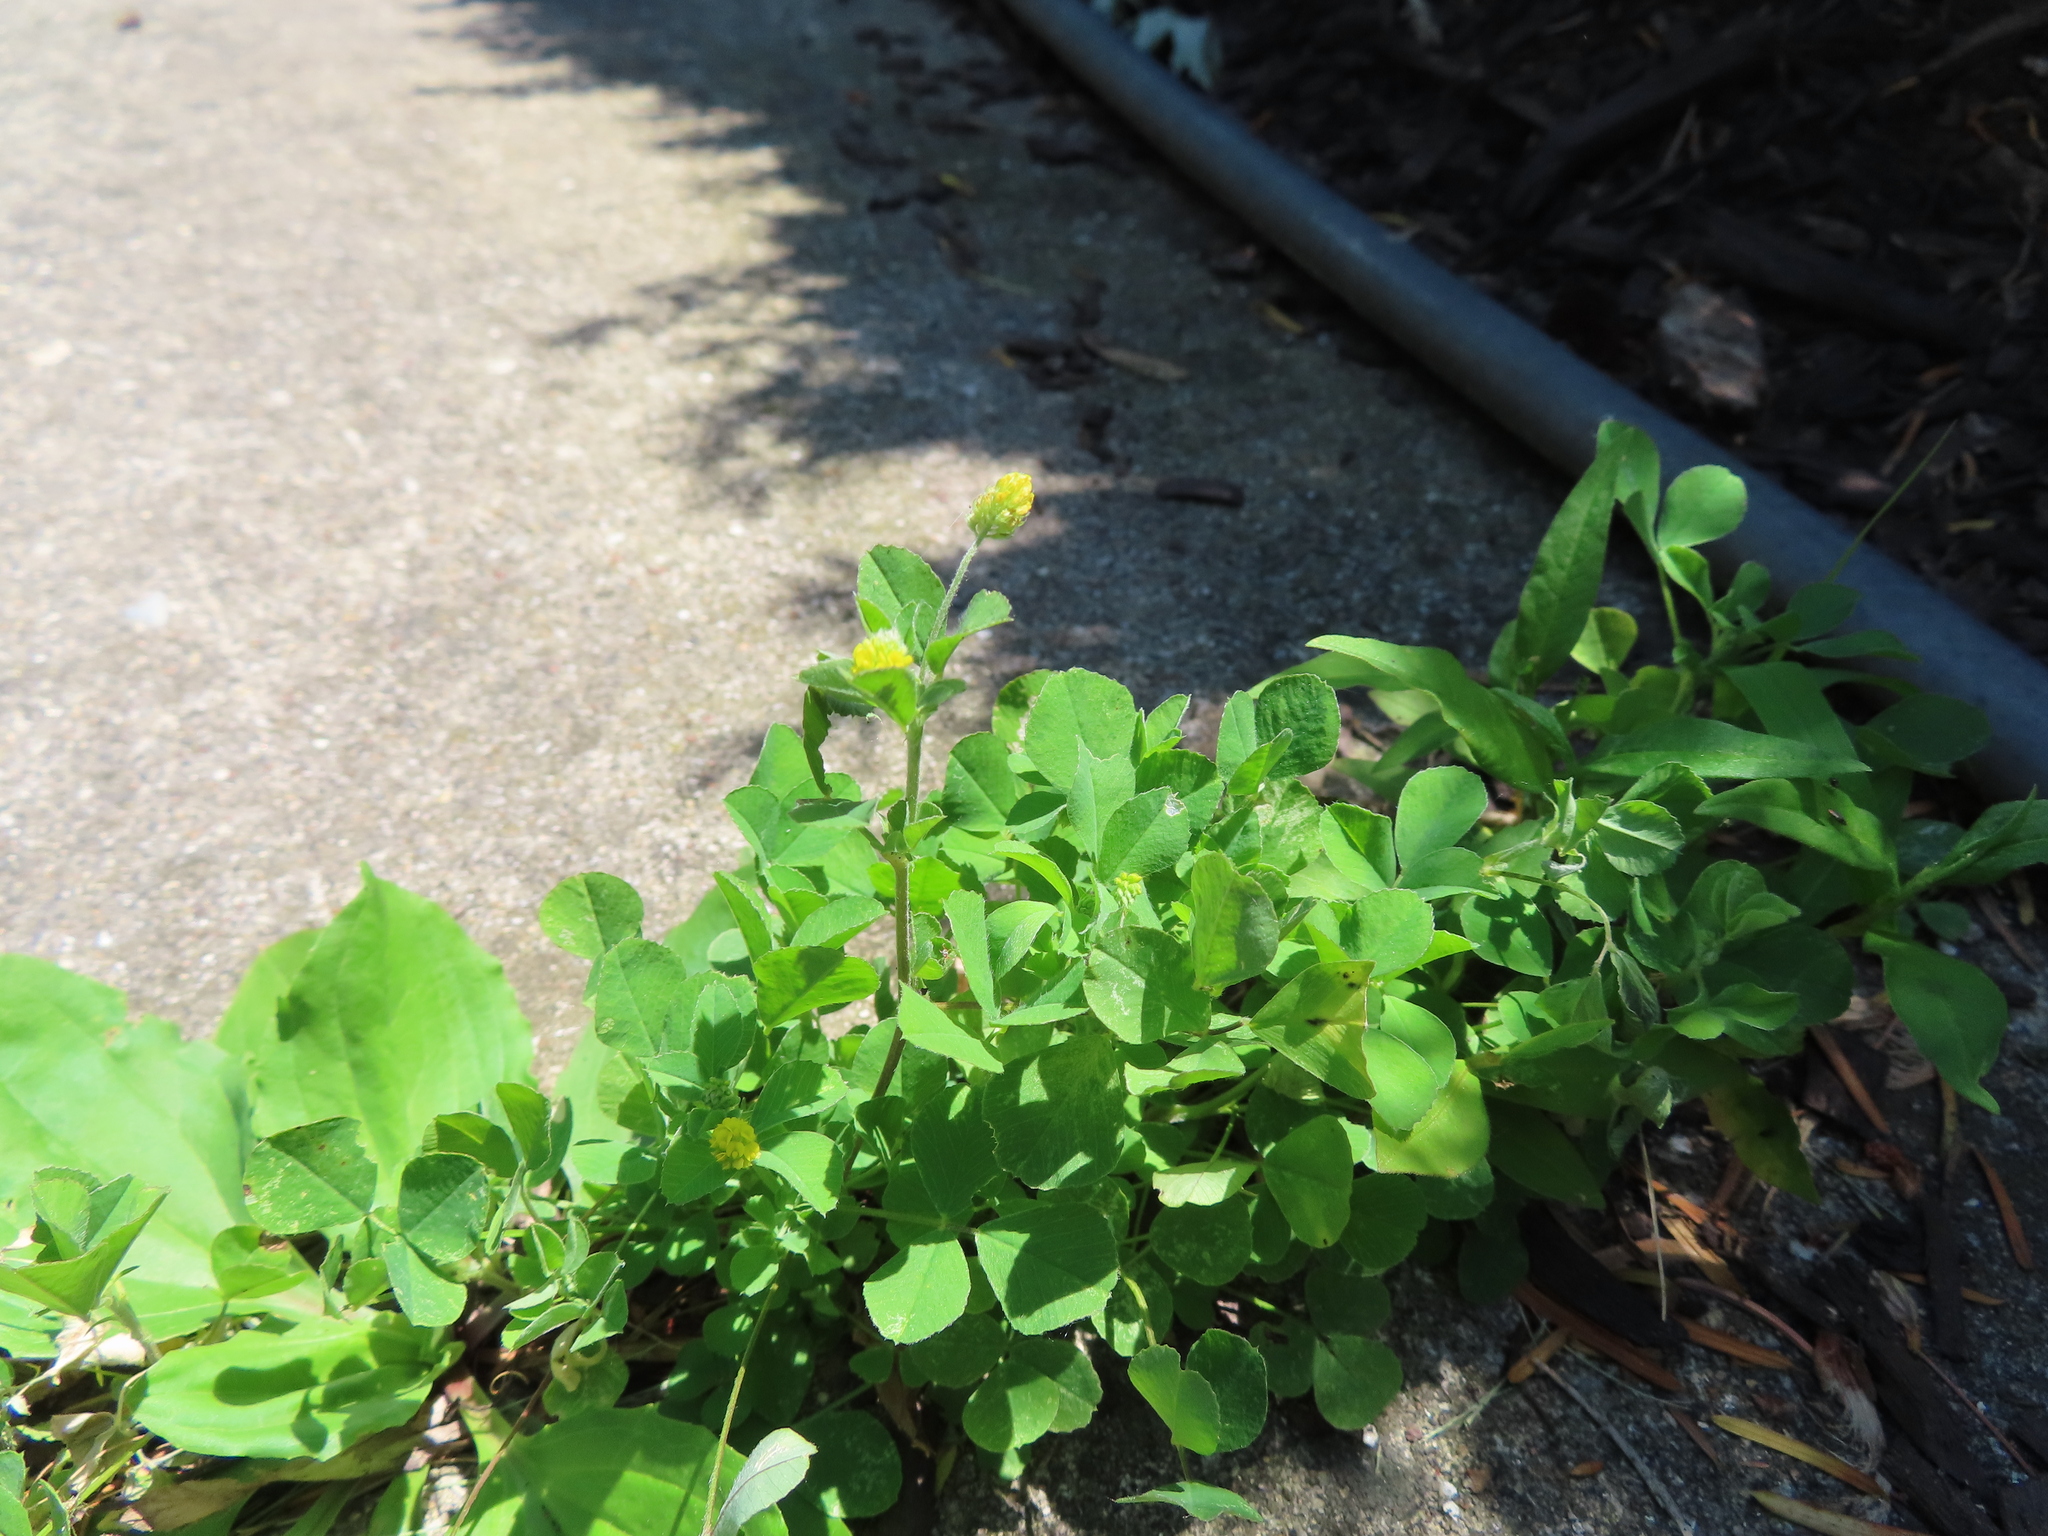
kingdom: Plantae
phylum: Tracheophyta
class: Magnoliopsida
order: Fabales
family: Fabaceae
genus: Medicago
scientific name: Medicago lupulina
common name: Black medick
